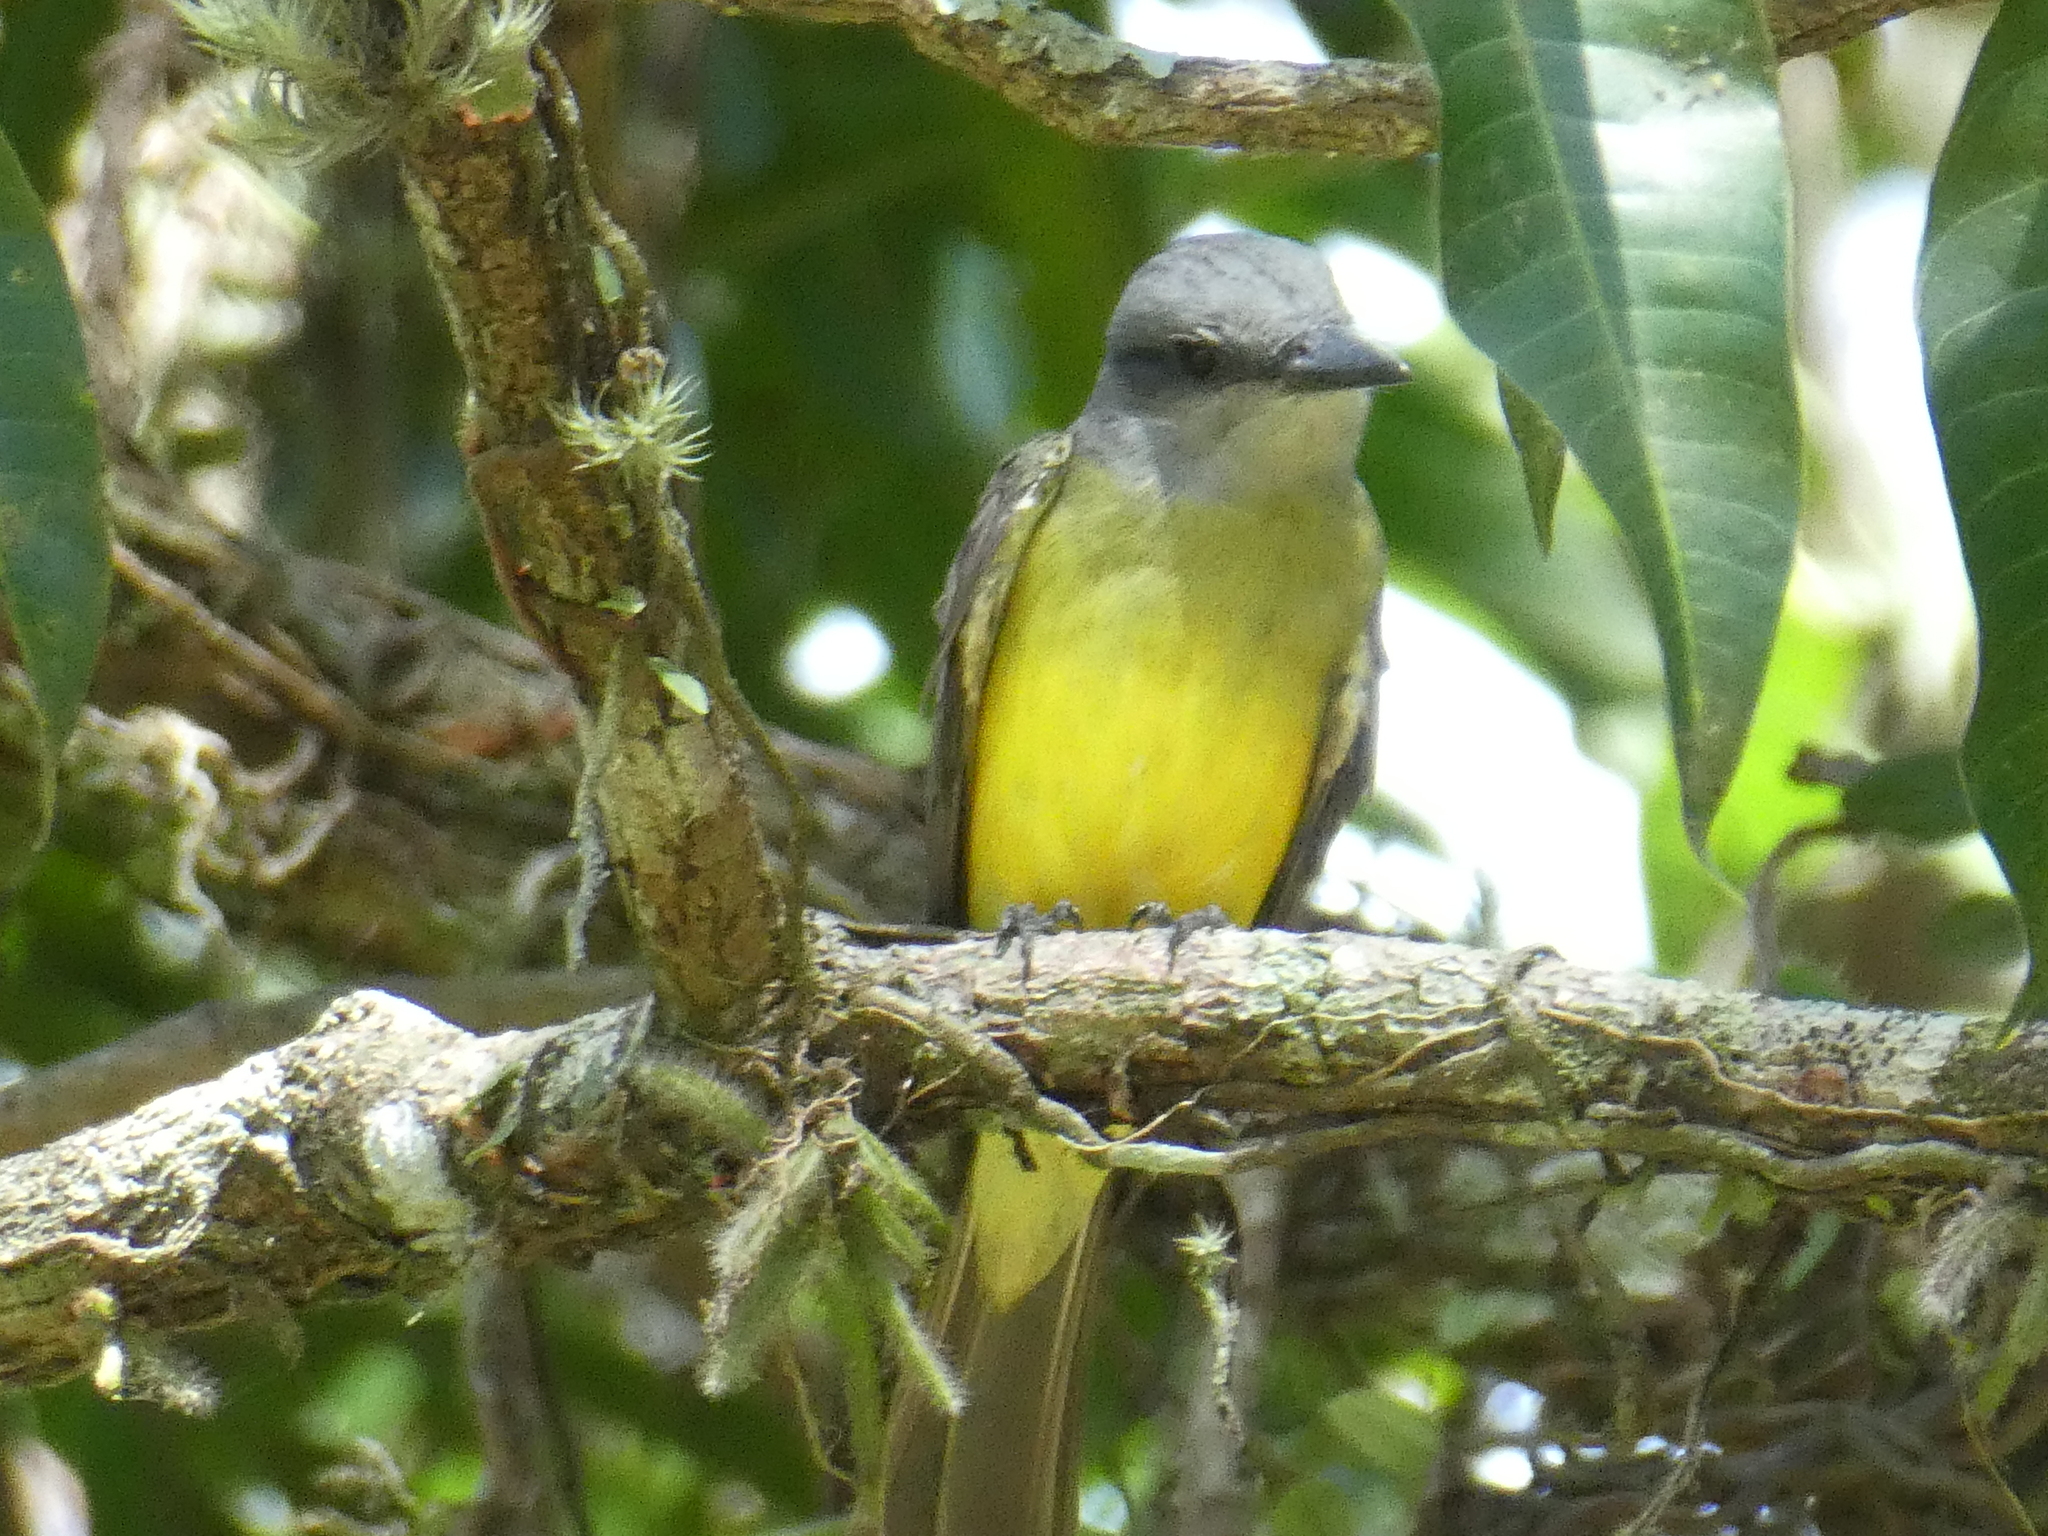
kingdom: Animalia
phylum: Chordata
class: Aves
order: Passeriformes
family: Tyrannidae
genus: Tyrannus
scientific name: Tyrannus melancholicus
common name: Tropical kingbird
